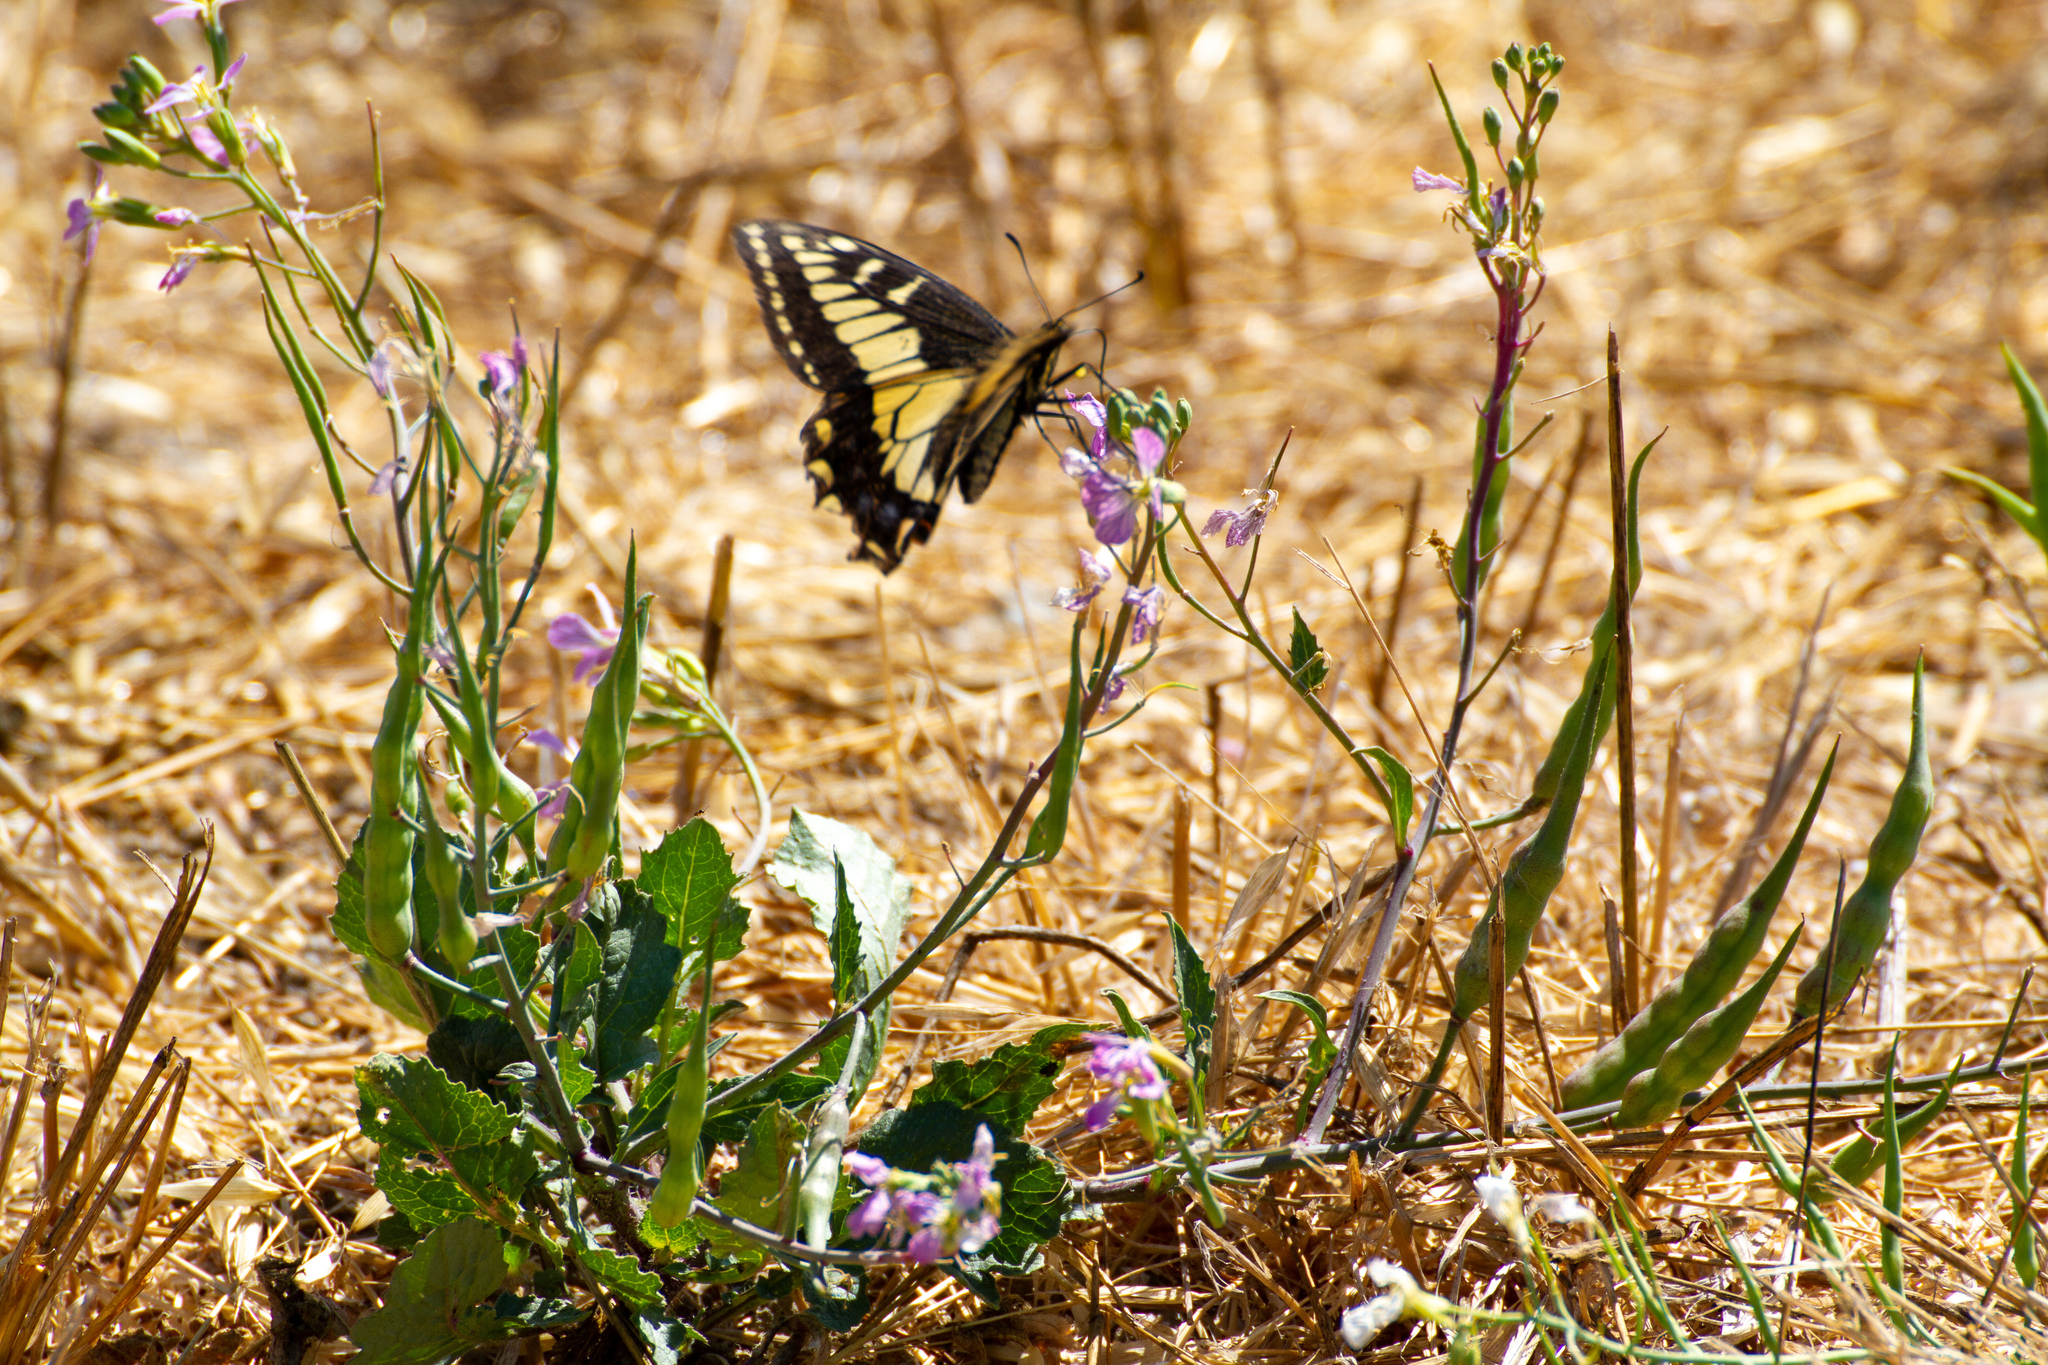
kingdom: Animalia
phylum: Arthropoda
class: Insecta
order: Lepidoptera
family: Papilionidae
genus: Papilio
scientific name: Papilio zelicaon
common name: Anise swallowtail
